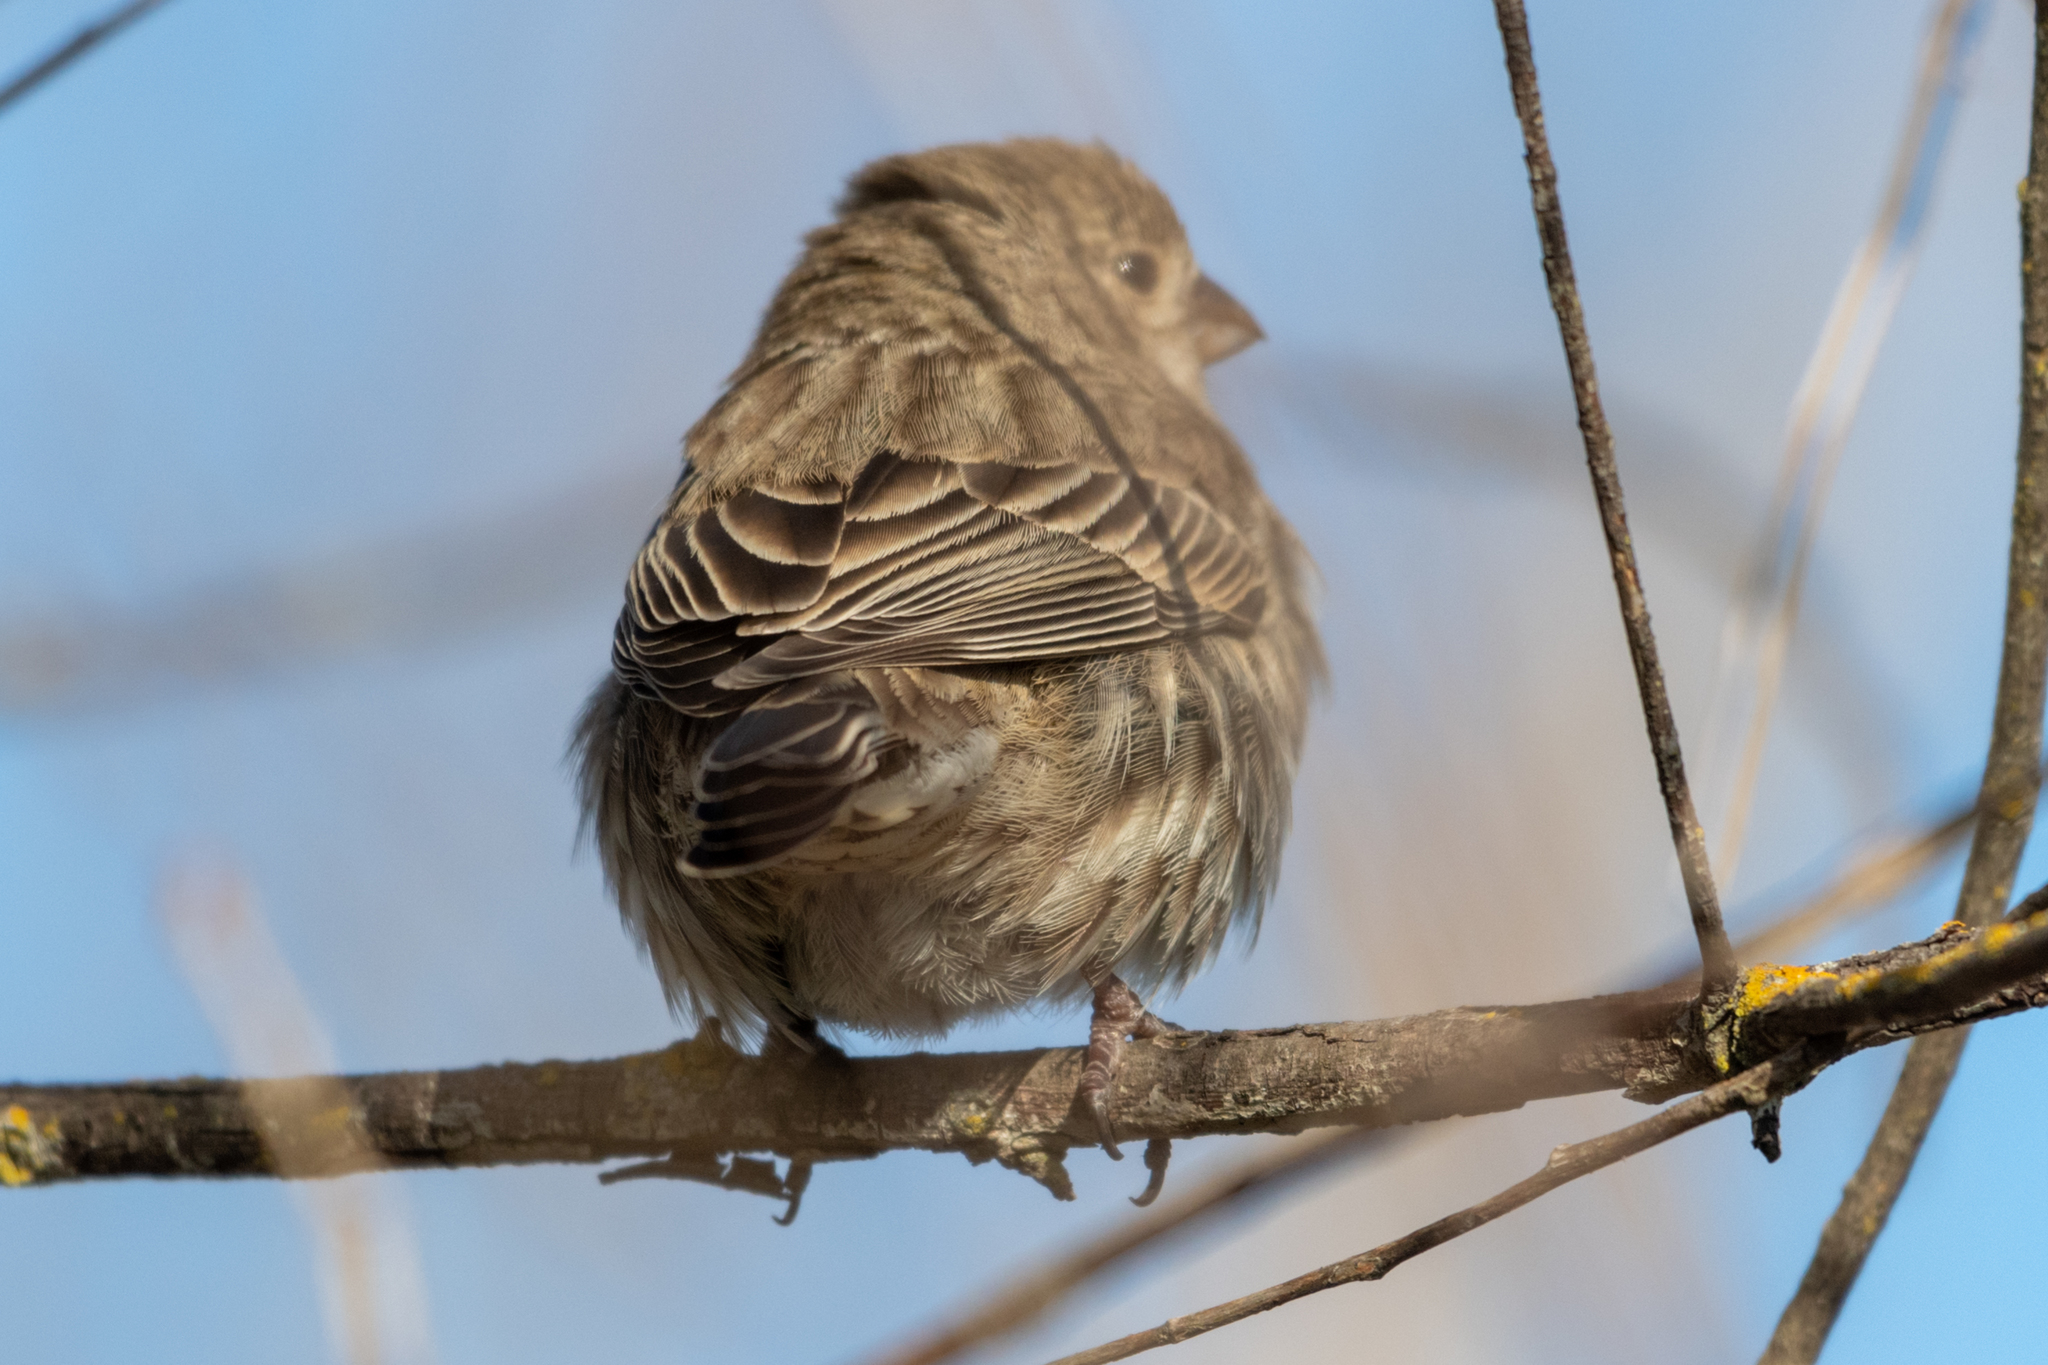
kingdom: Animalia
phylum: Chordata
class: Aves
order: Passeriformes
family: Fringillidae
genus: Haemorhous
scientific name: Haemorhous mexicanus
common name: House finch
